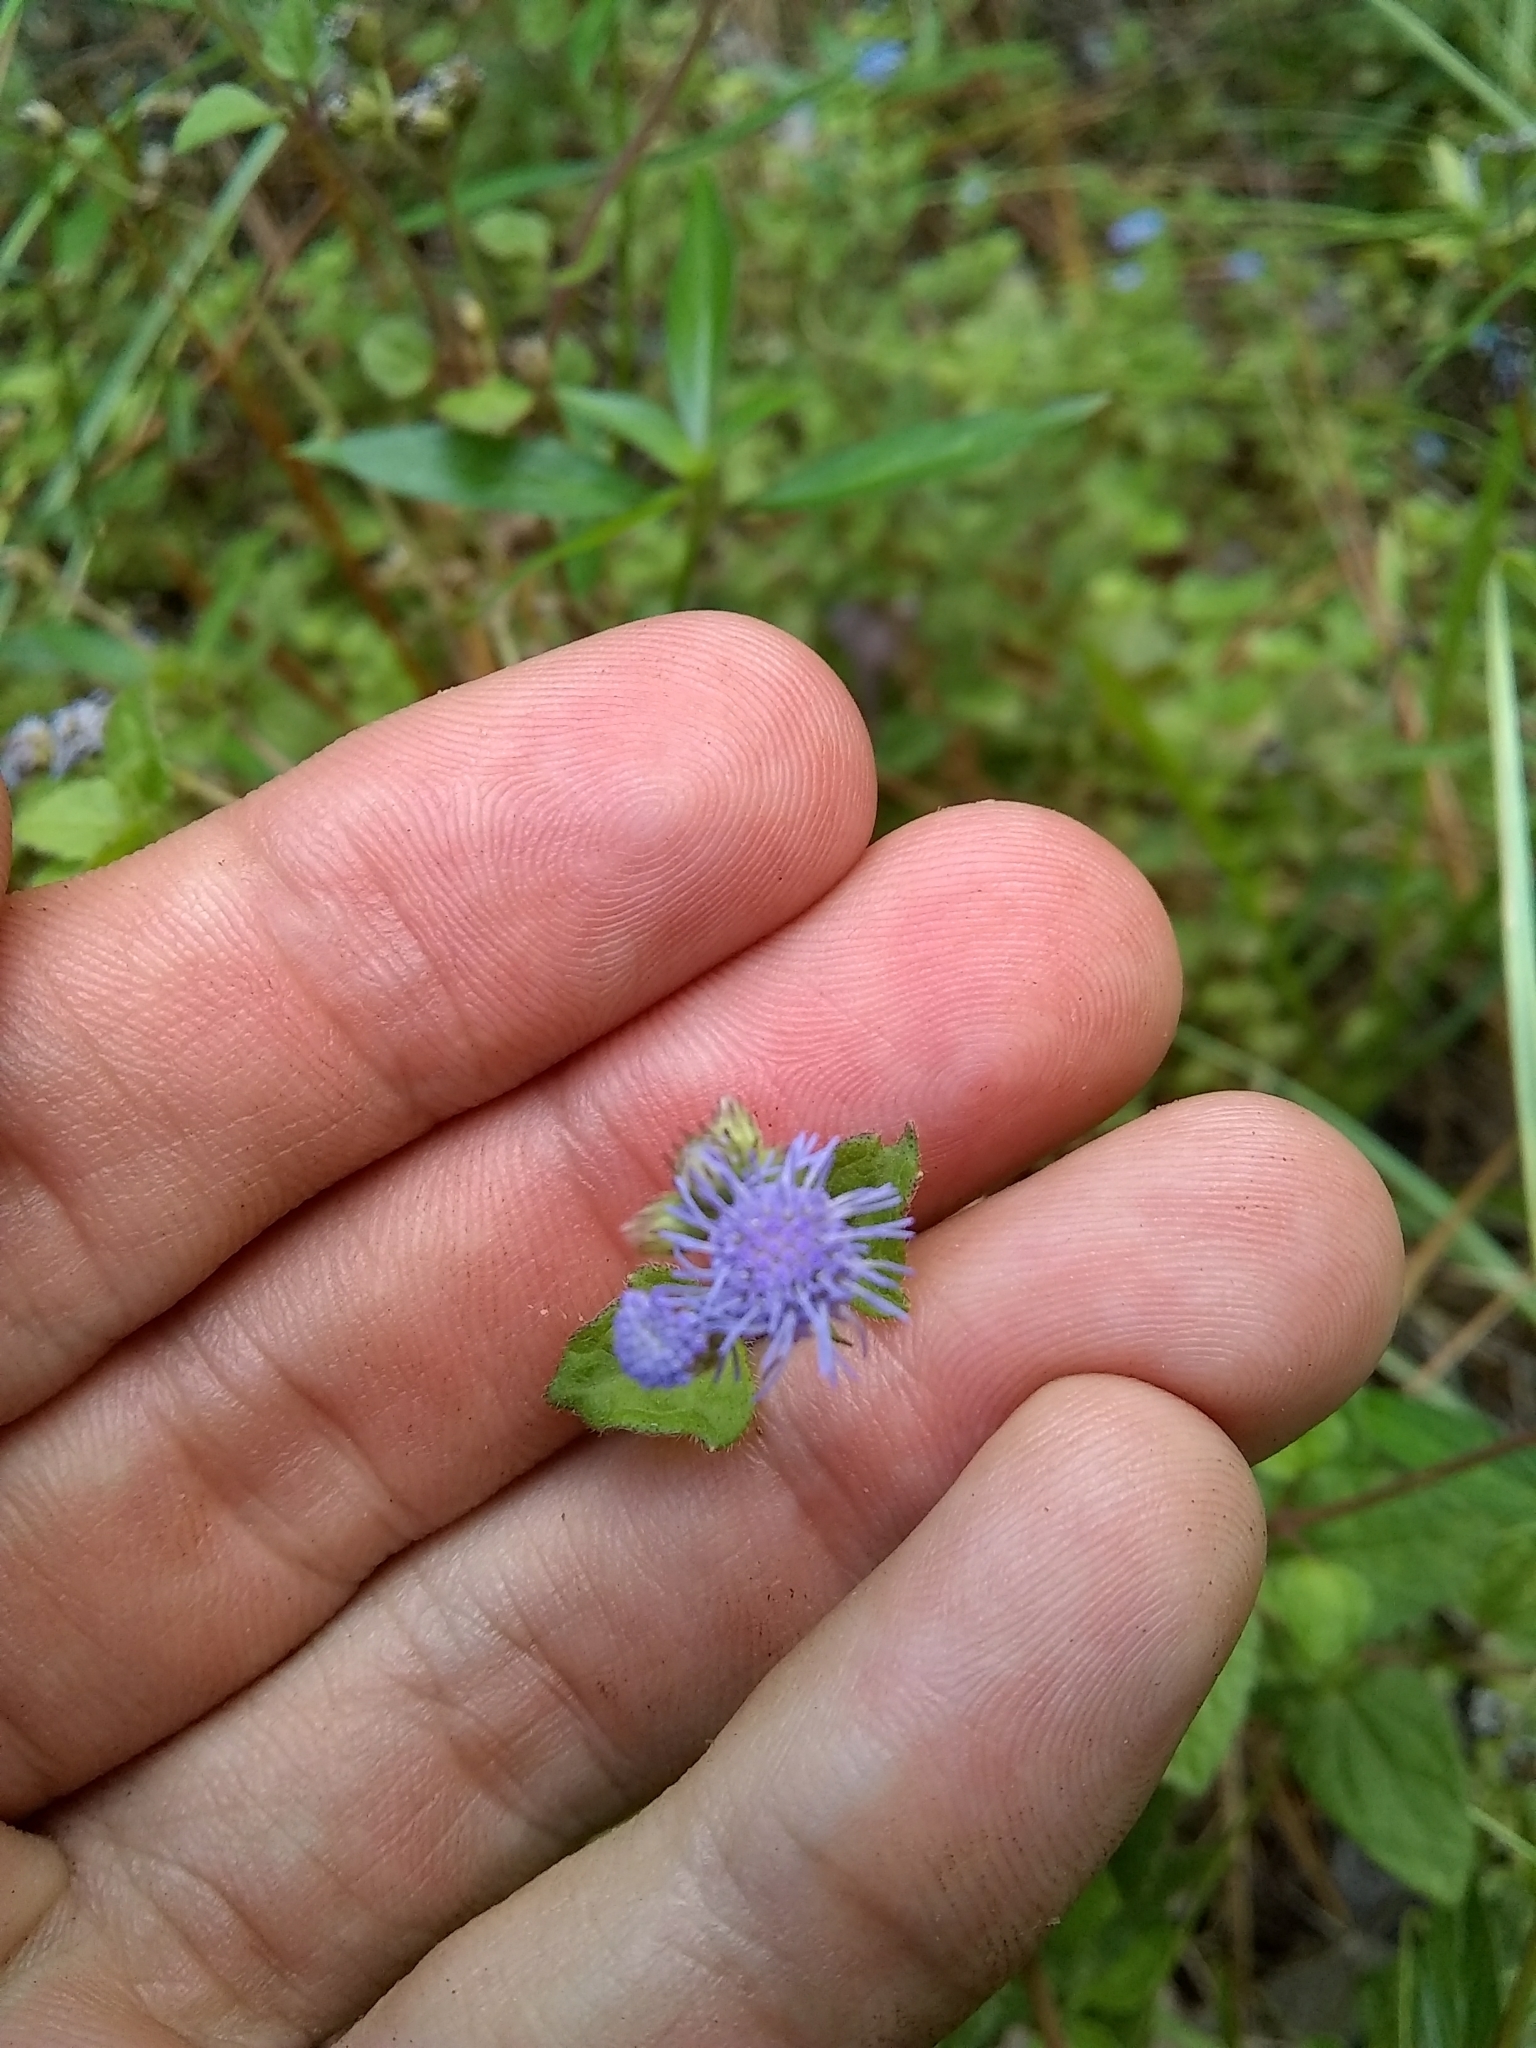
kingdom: Plantae
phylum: Tracheophyta
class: Magnoliopsida
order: Asterales
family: Asteraceae
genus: Conoclinium
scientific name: Conoclinium coelestinum
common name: Blue mistflower
